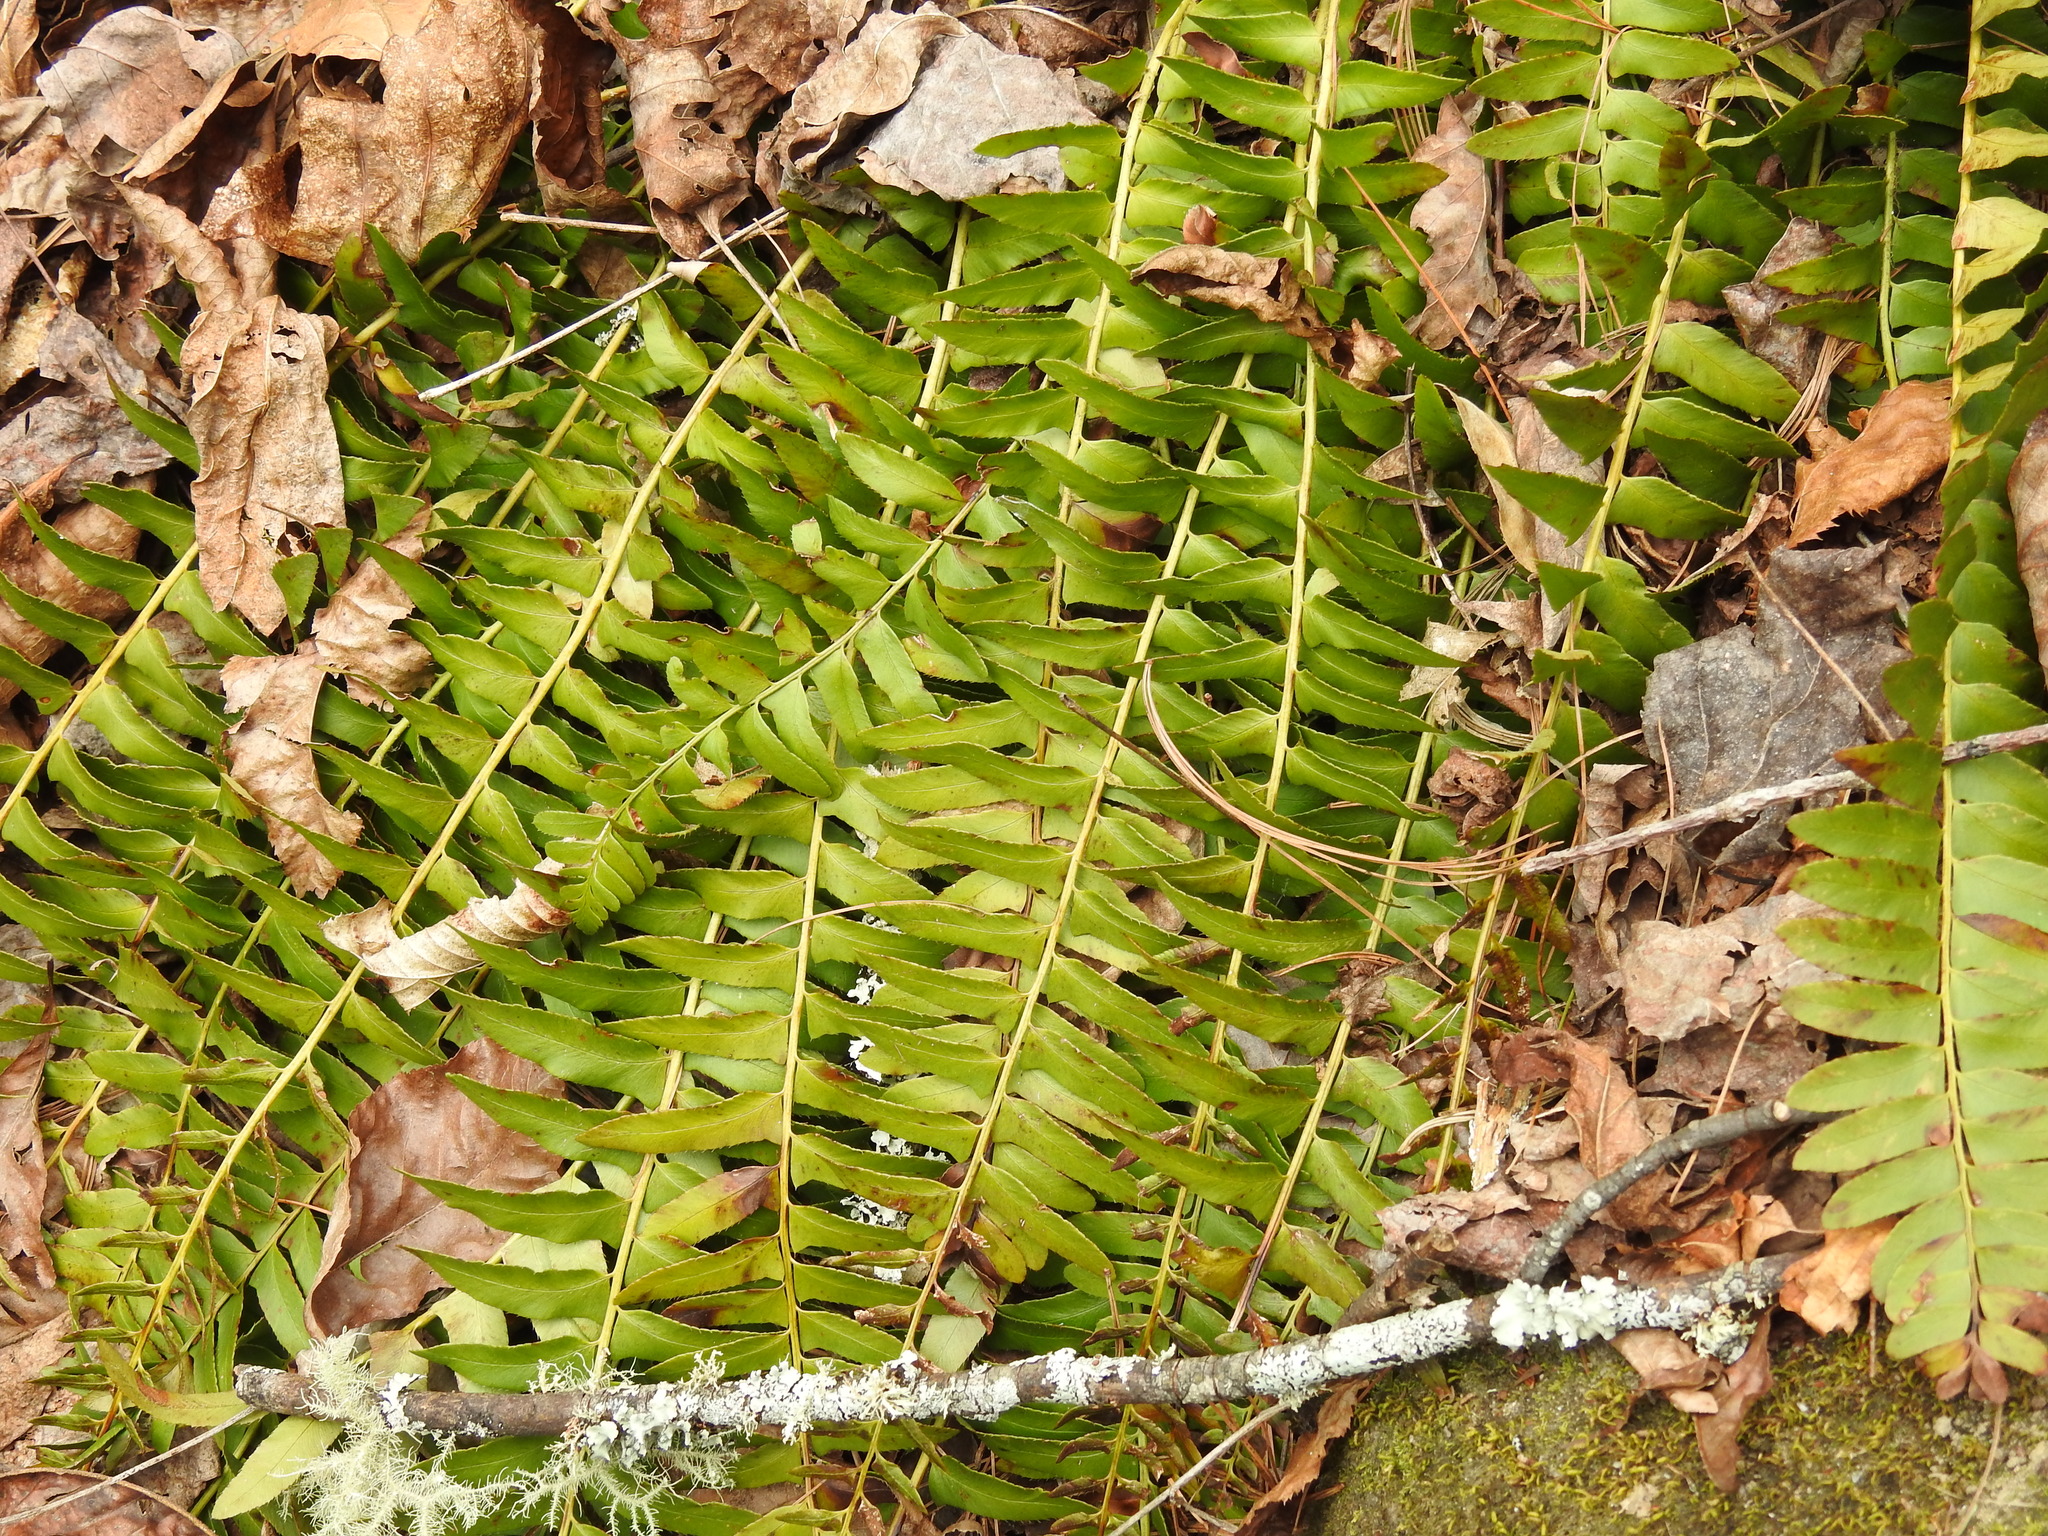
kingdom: Plantae
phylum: Tracheophyta
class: Polypodiopsida
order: Polypodiales
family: Dryopteridaceae
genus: Polystichum
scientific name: Polystichum acrostichoides
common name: Christmas fern
